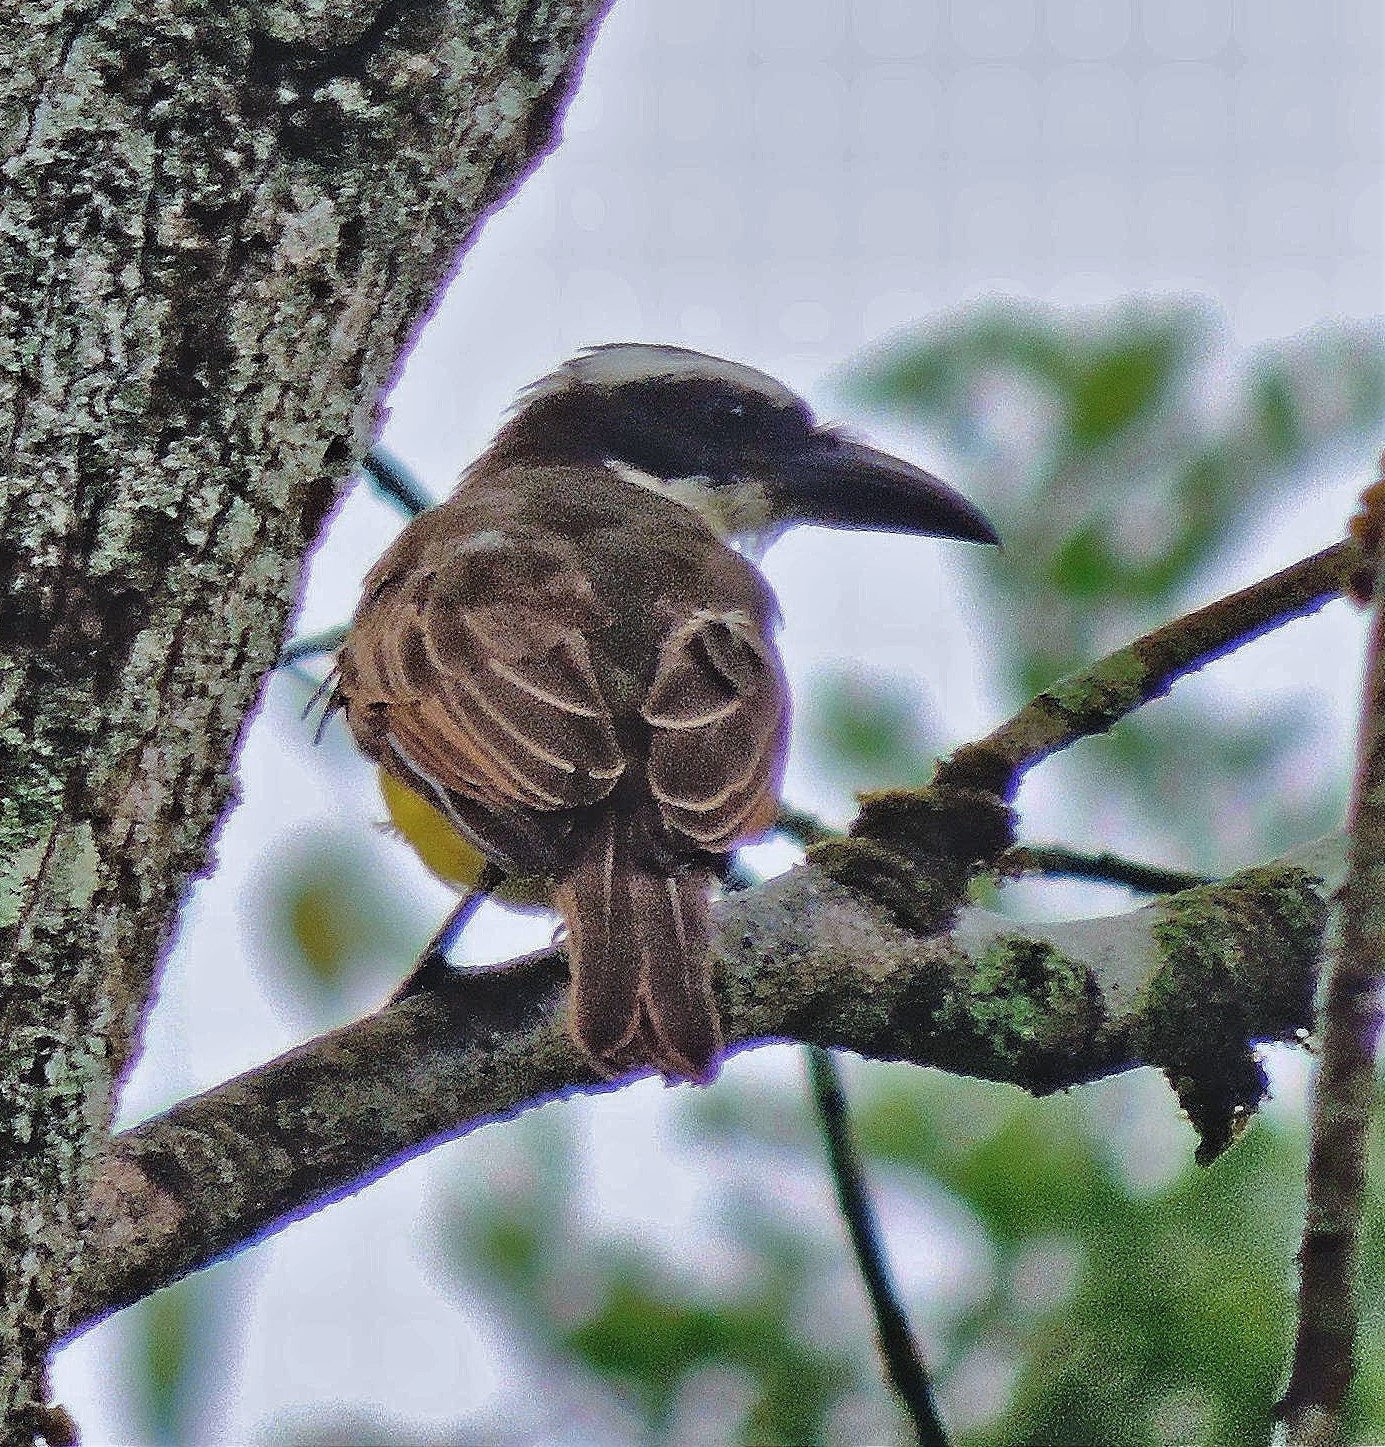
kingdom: Animalia
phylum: Chordata
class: Aves
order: Passeriformes
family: Tyrannidae
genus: Megarynchus
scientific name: Megarynchus pitangua
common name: Boat-billed flycatcher
